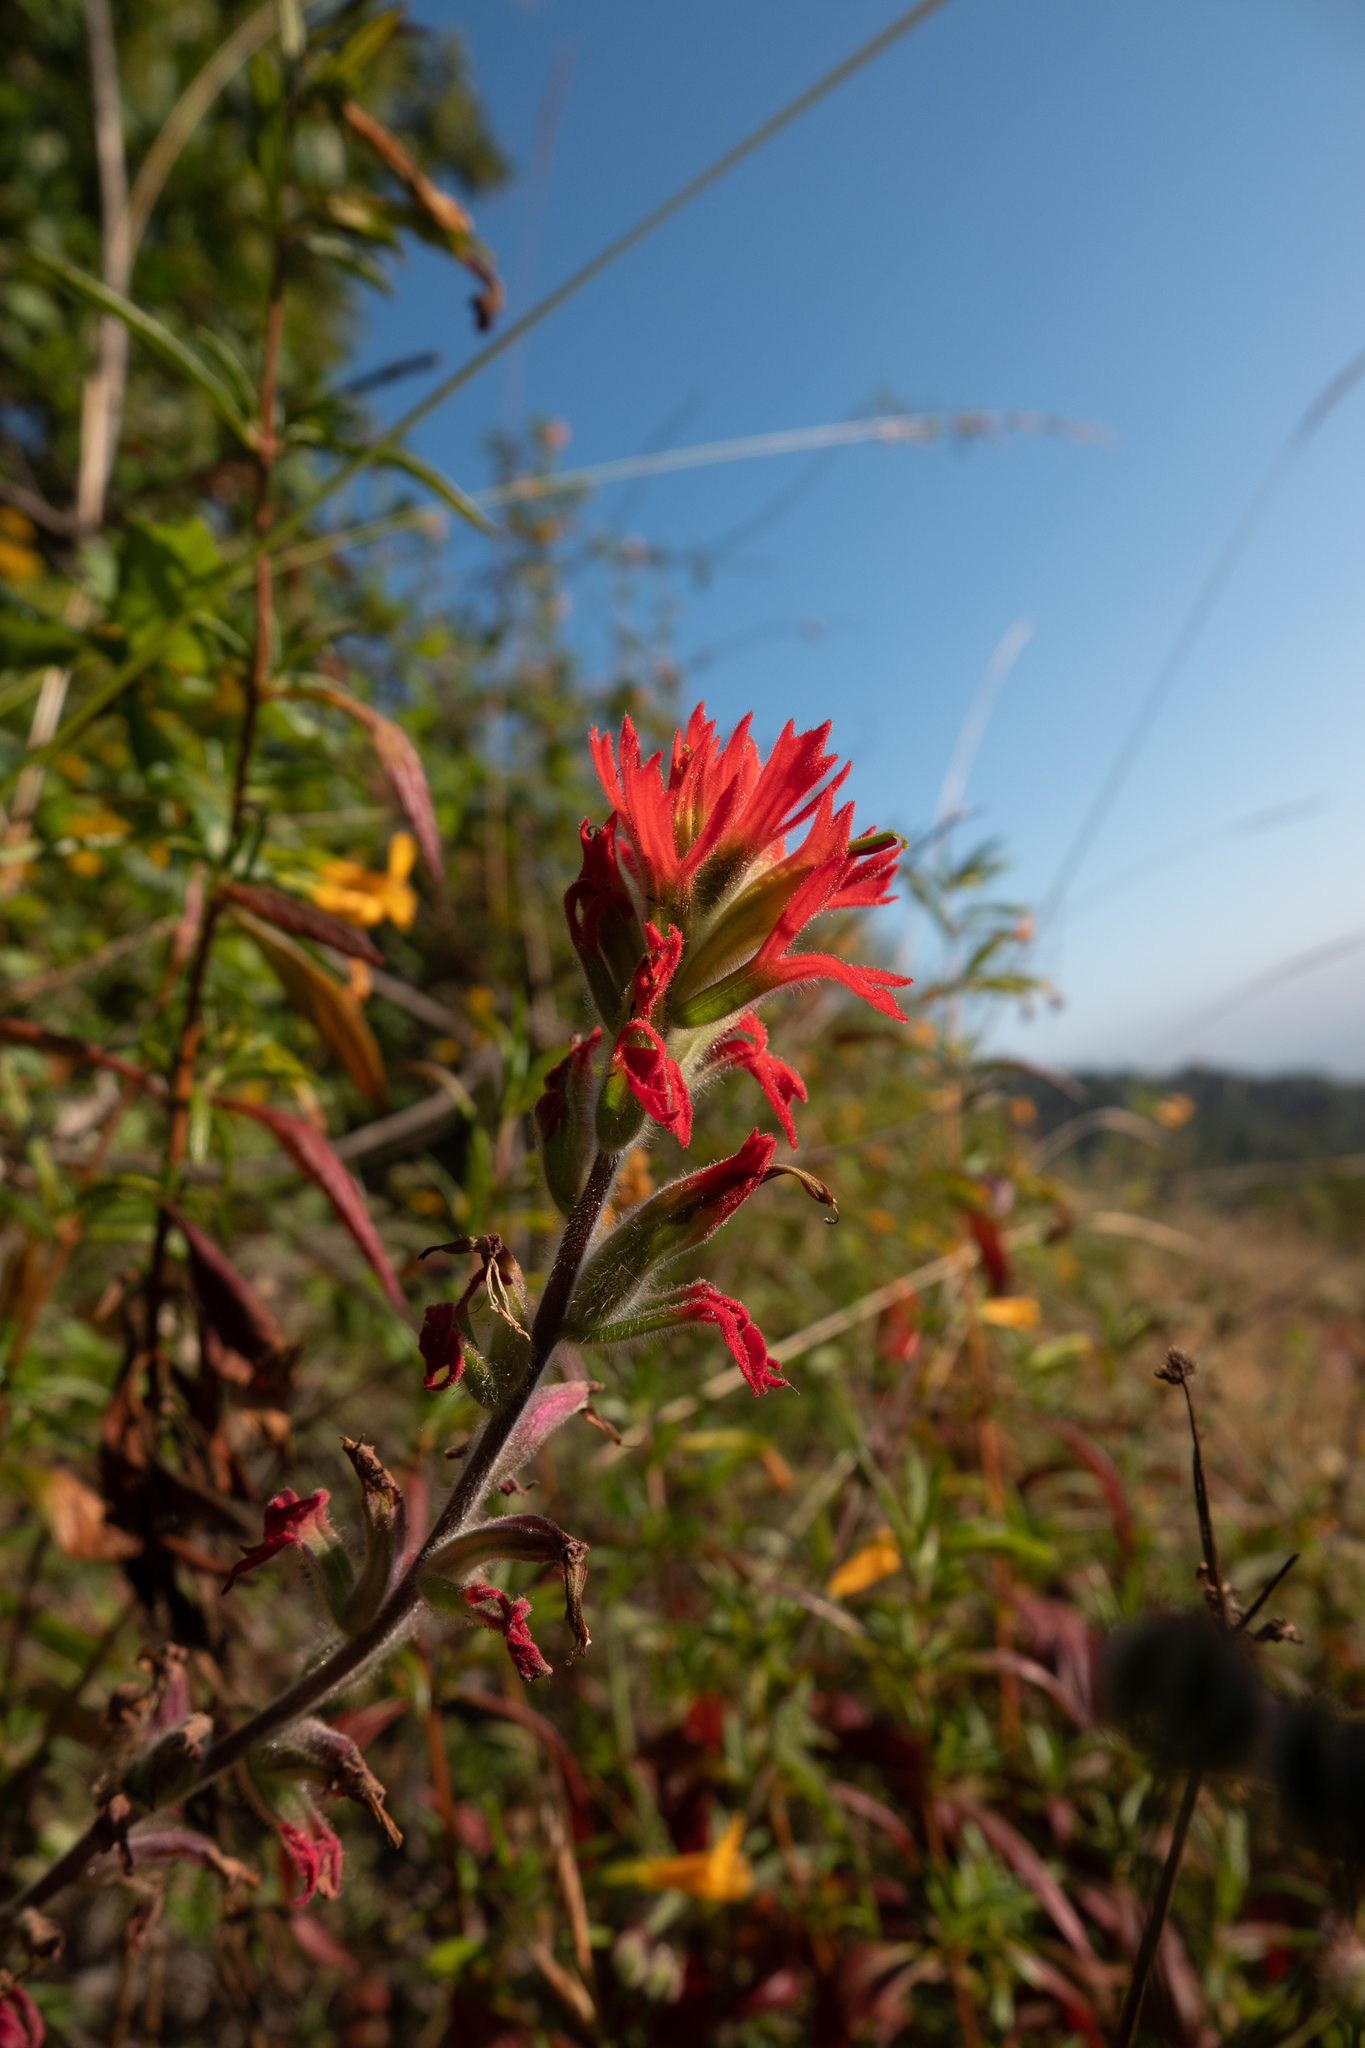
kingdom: Plantae
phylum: Tracheophyta
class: Magnoliopsida
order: Lamiales
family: Orobanchaceae
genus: Castilleja
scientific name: Castilleja affinis
